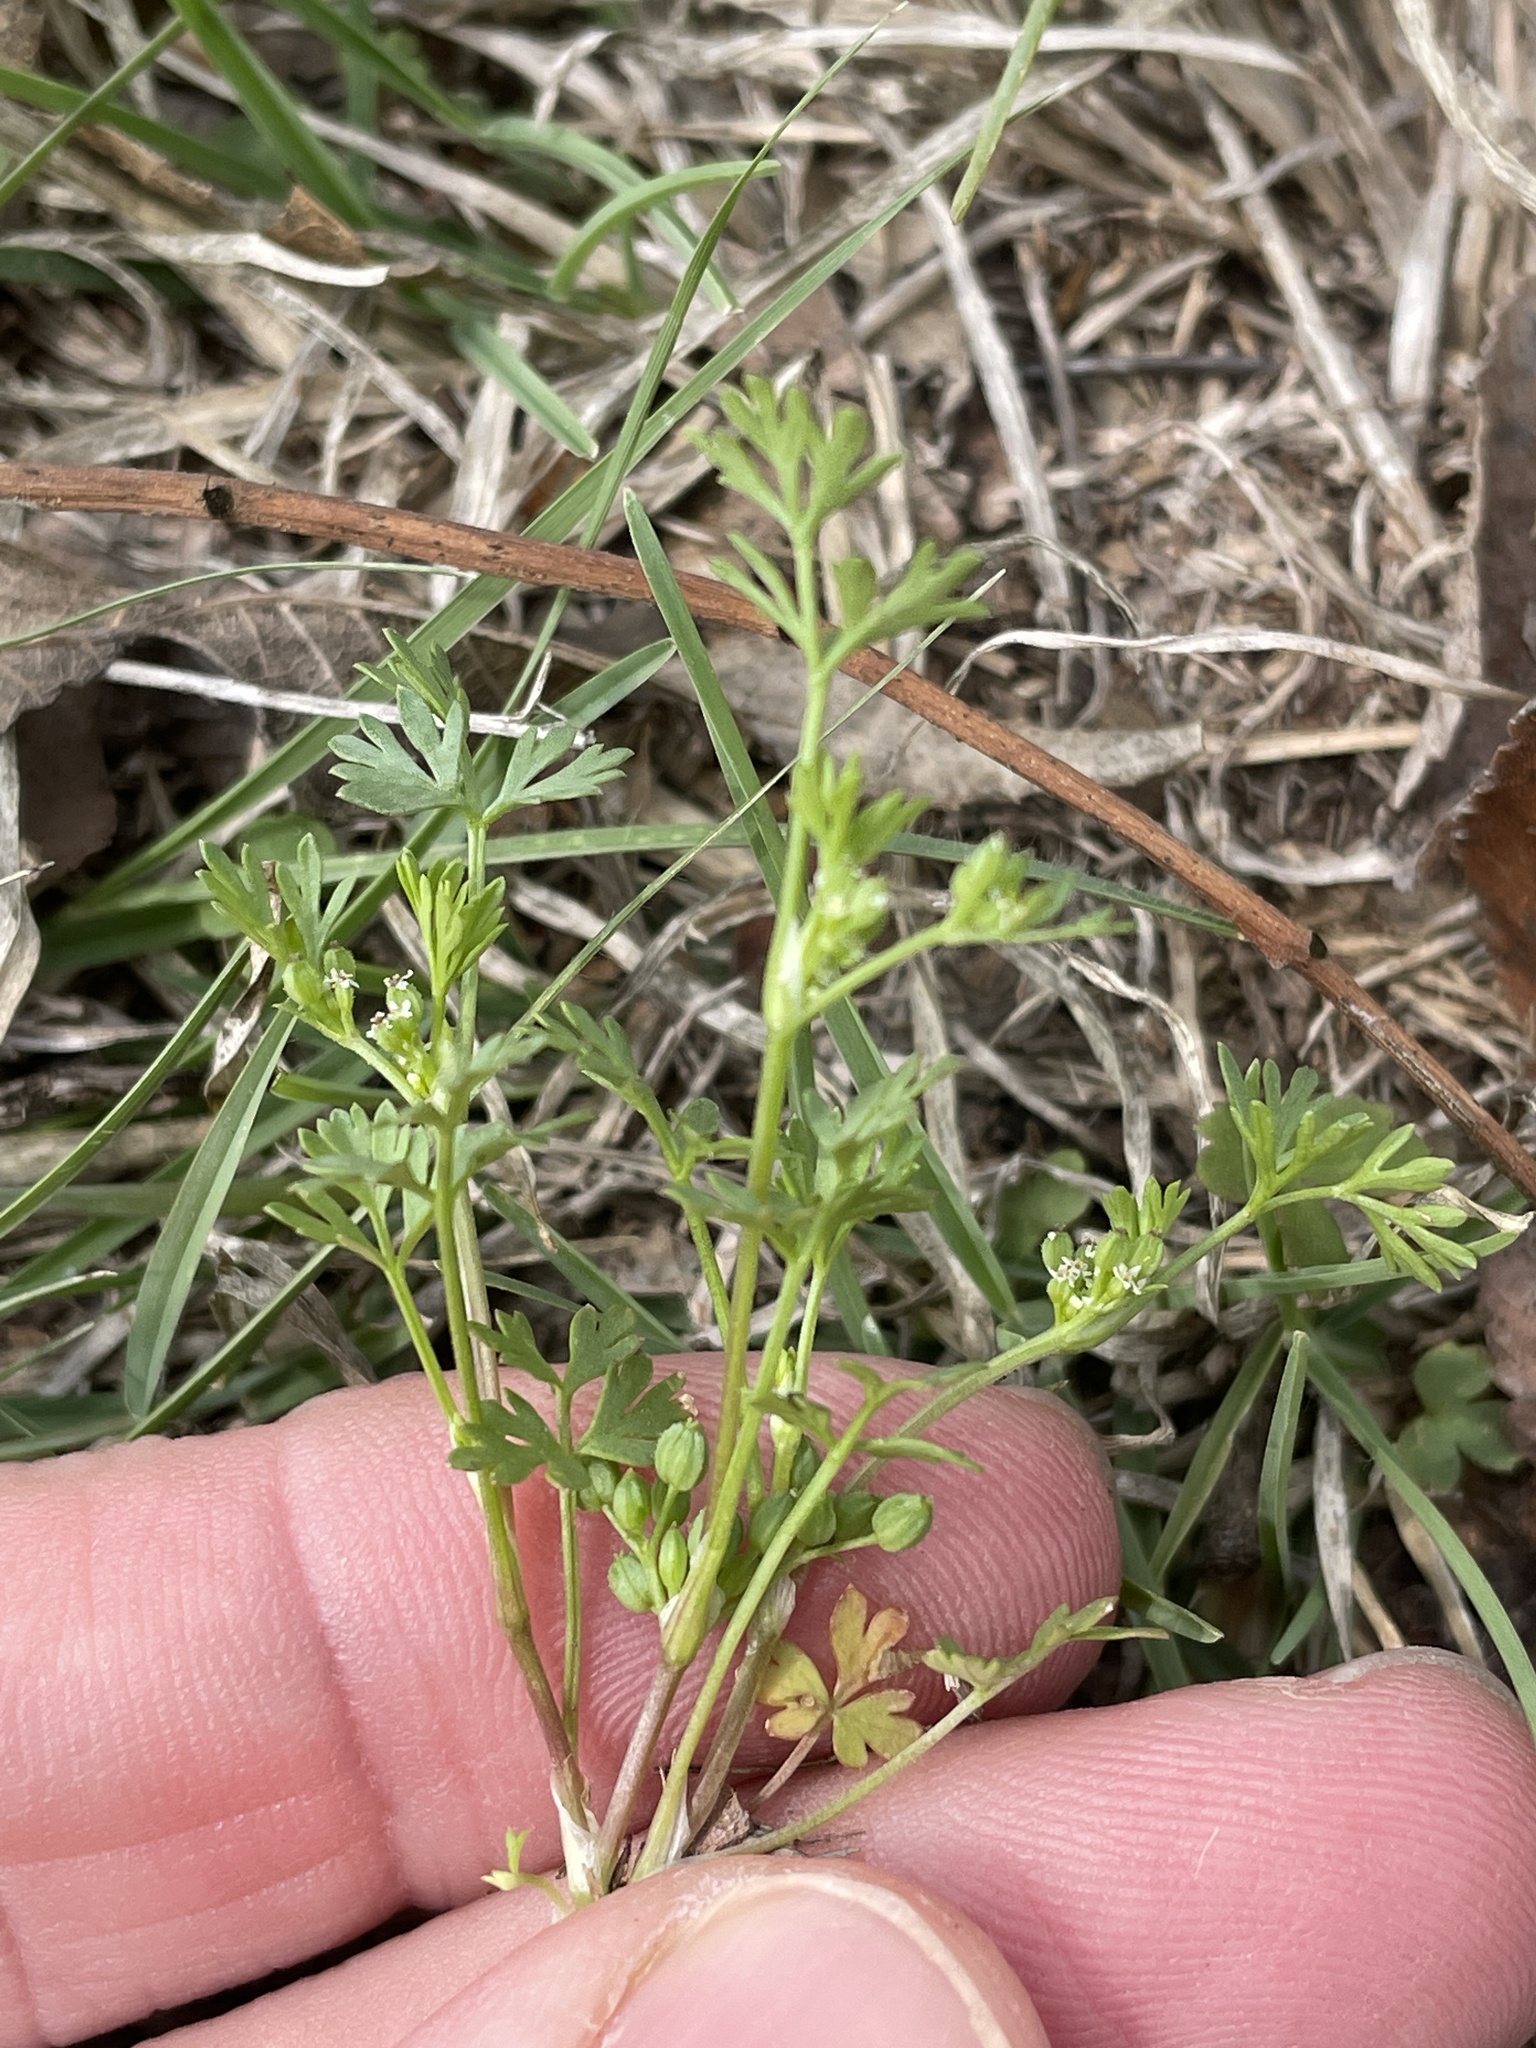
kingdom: Plantae
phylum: Tracheophyta
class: Magnoliopsida
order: Apiales
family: Apiaceae
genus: Cyclospermum
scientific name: Cyclospermum leptophyllum
